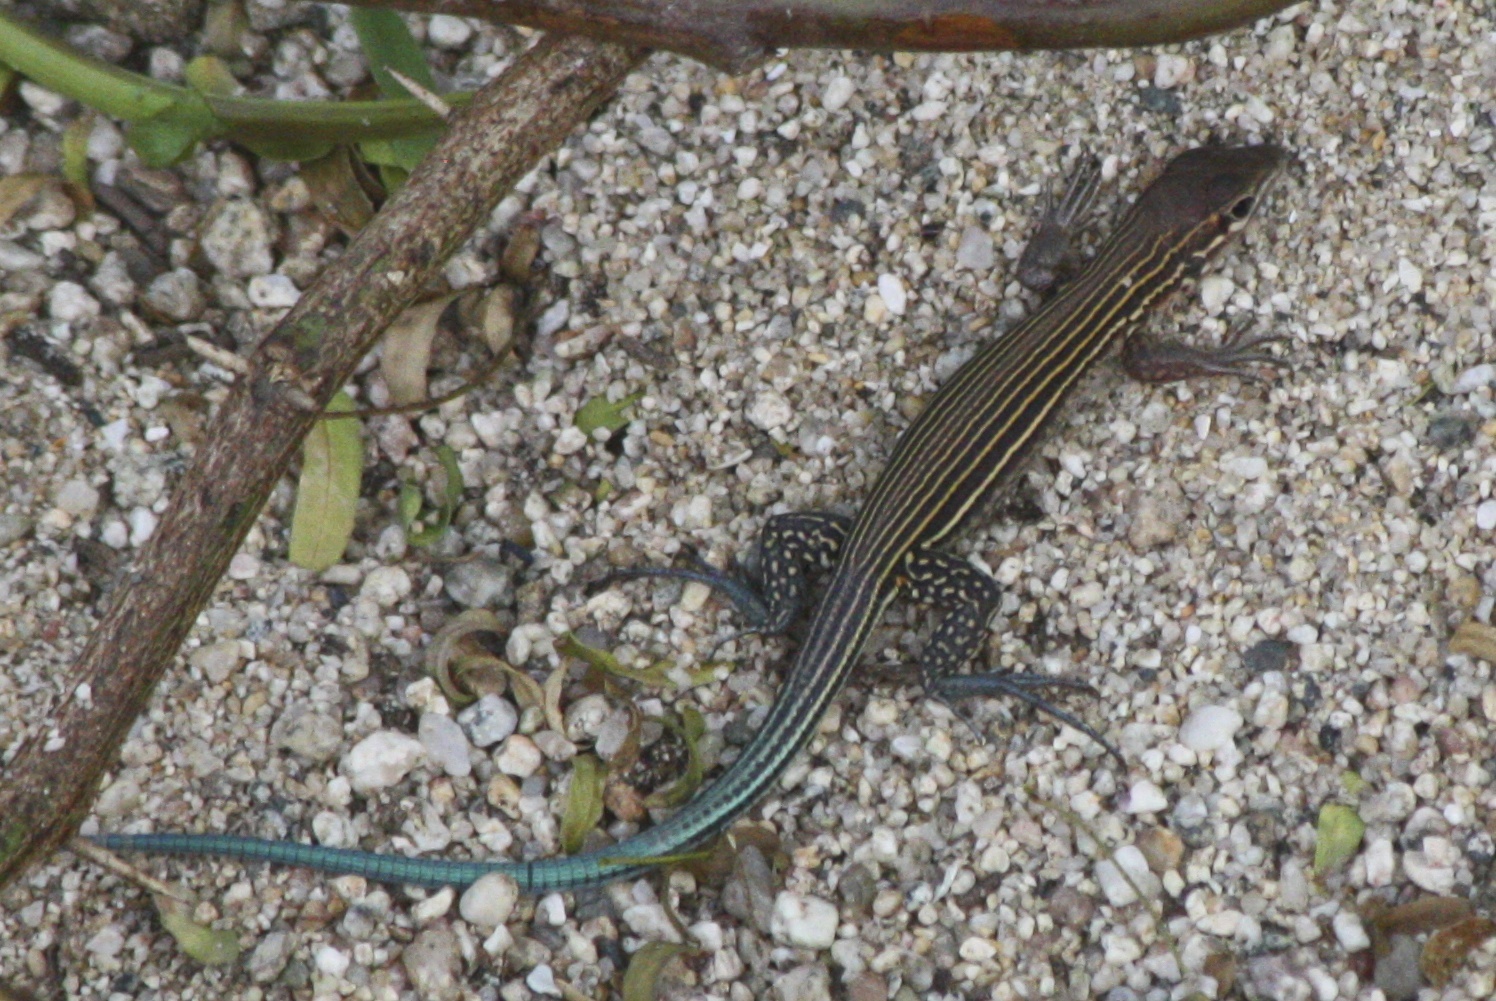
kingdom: Animalia
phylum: Chordata
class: Squamata
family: Teiidae
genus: Aspidoscelis
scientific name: Aspidoscelis lineattissimus
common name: Many-lined whiptail
